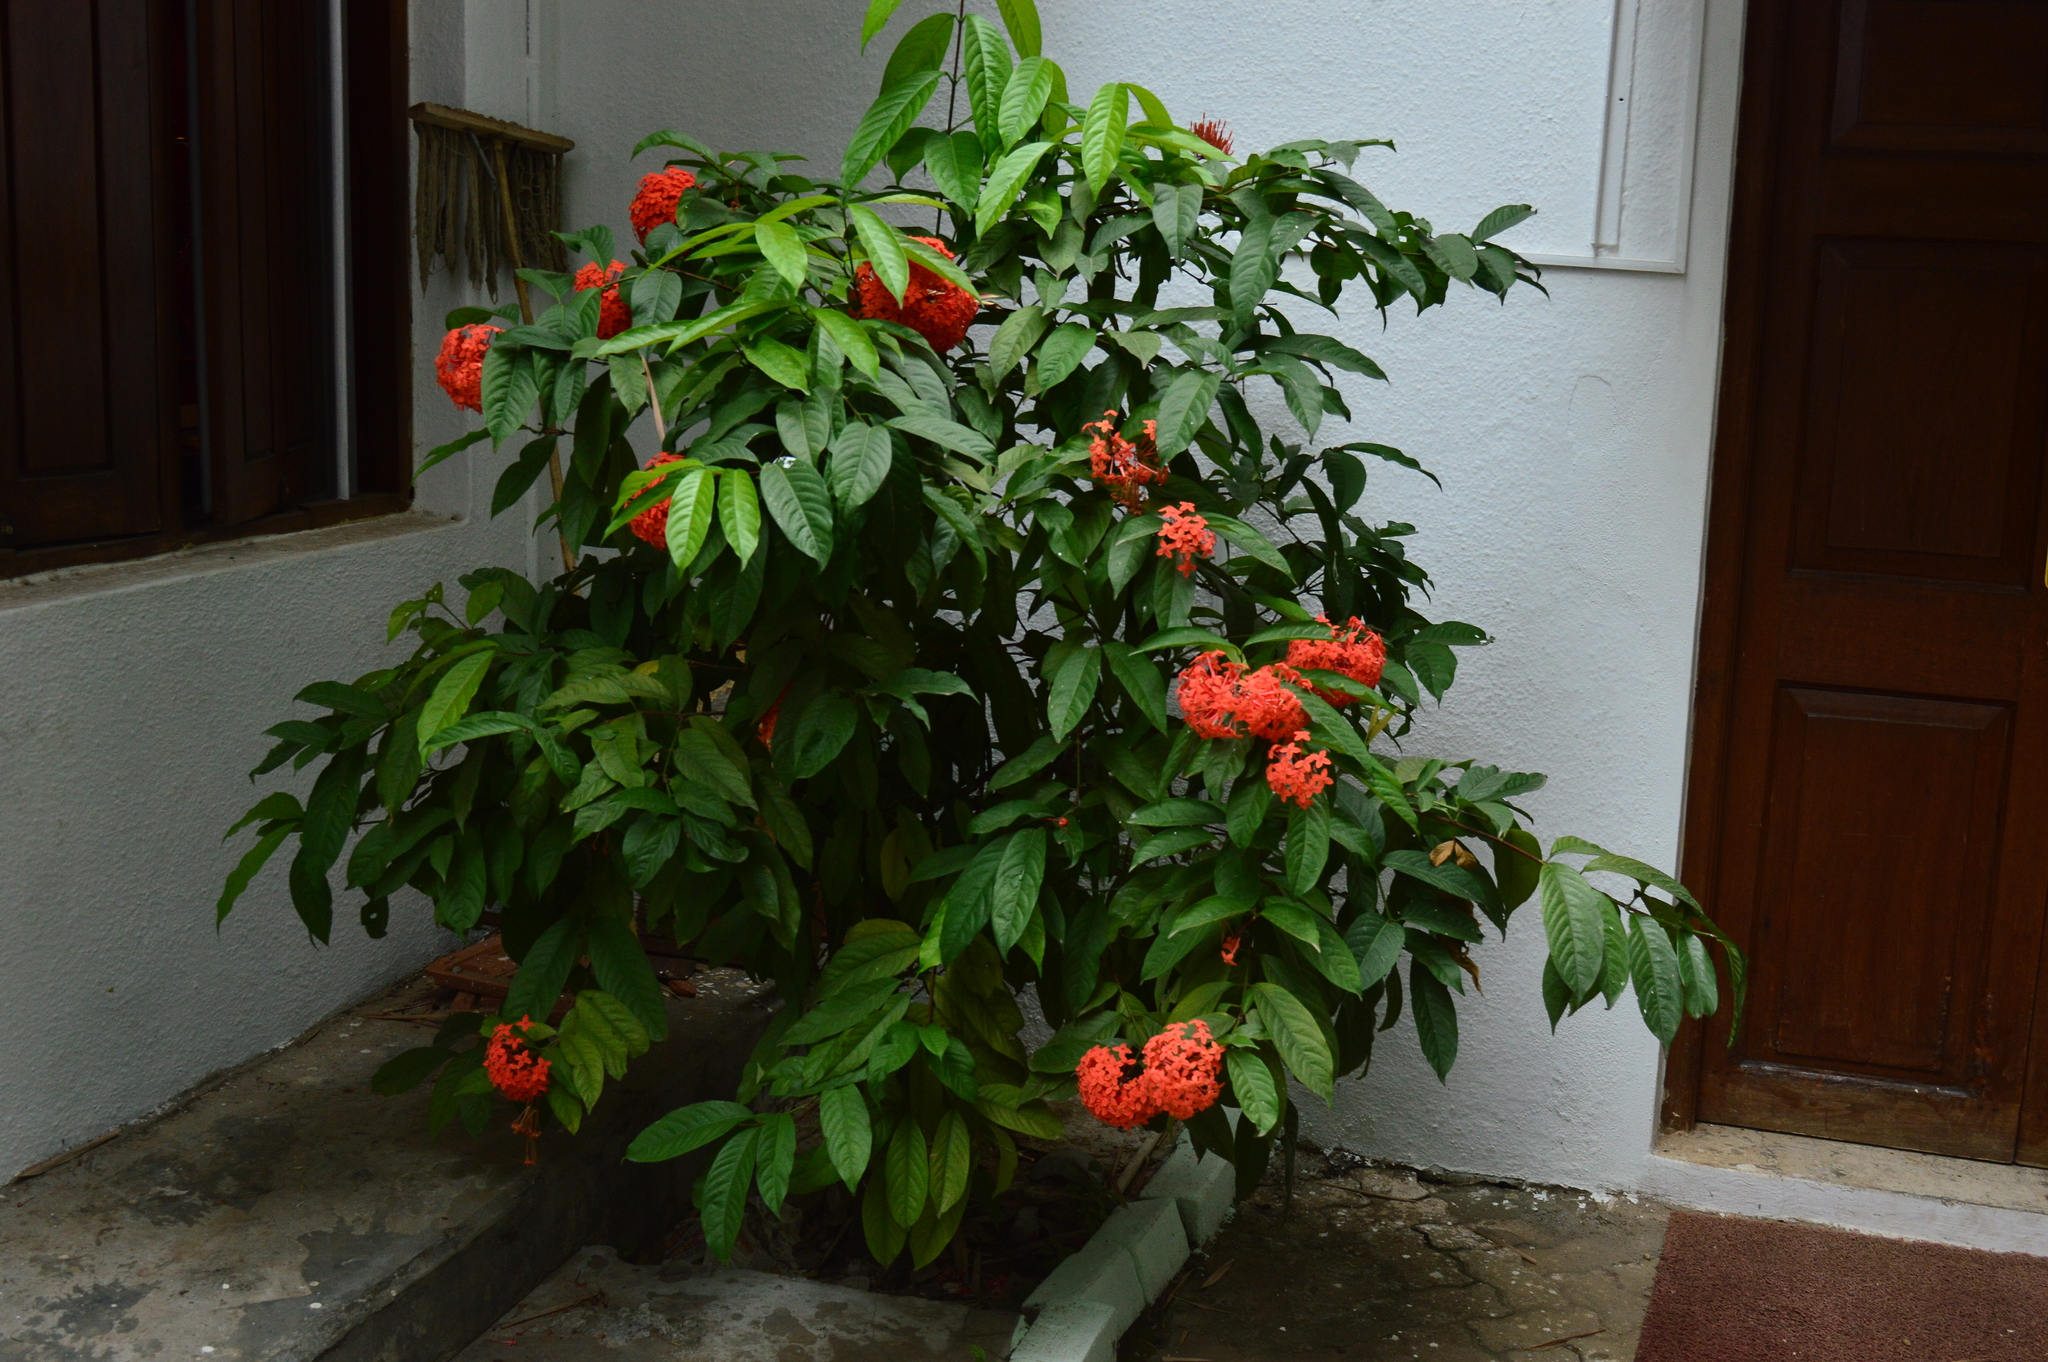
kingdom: Plantae
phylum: Tracheophyta
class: Magnoliopsida
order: Gentianales
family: Rubiaceae
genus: Ixora
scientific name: Ixora coccinea
